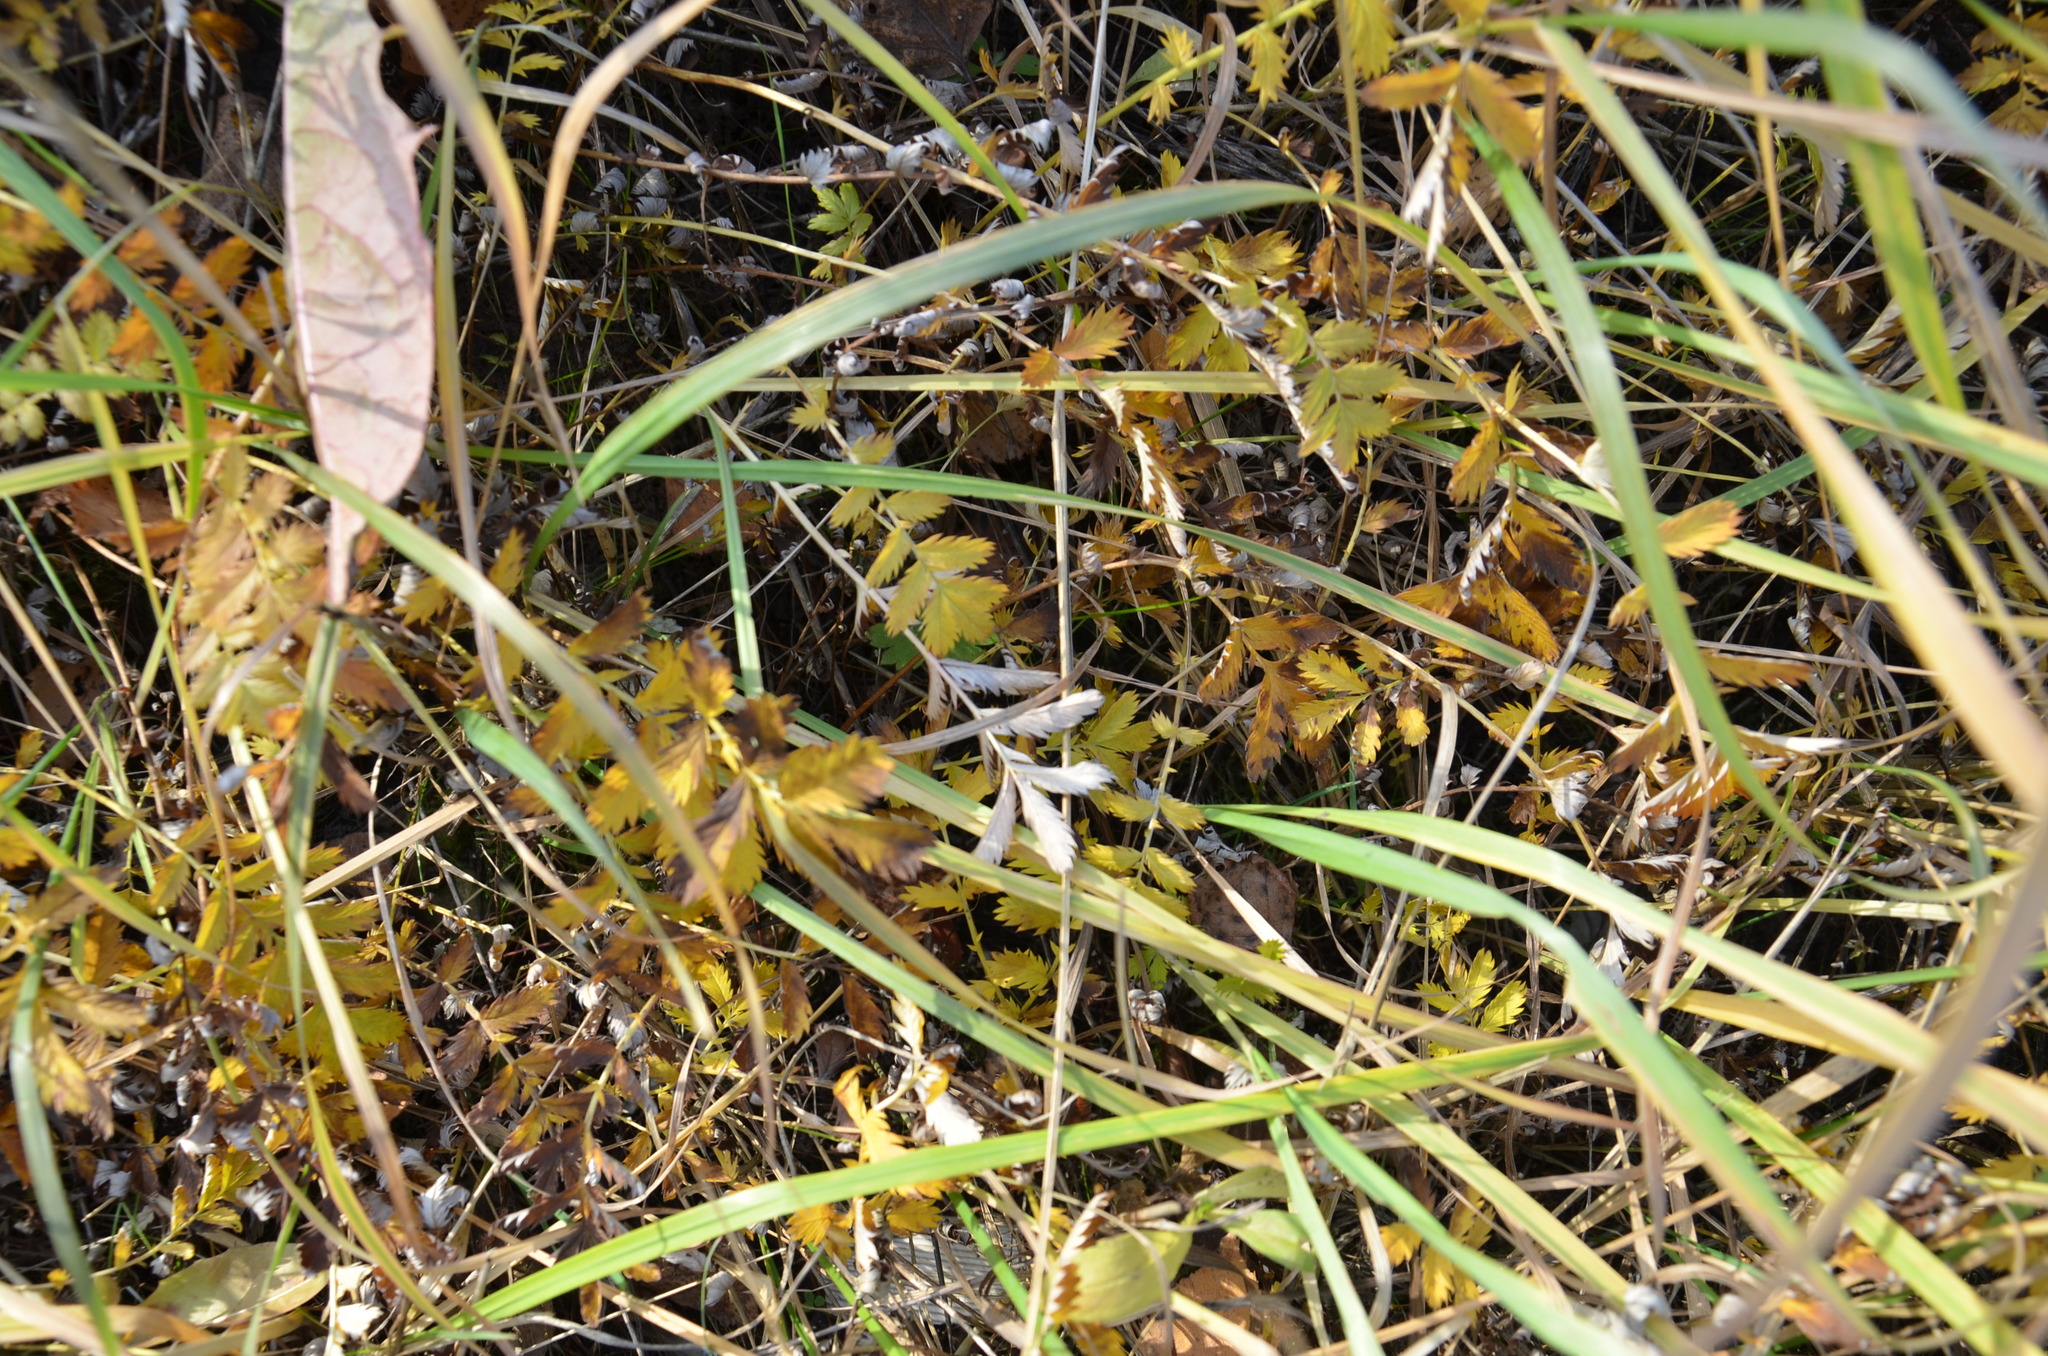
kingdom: Plantae
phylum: Tracheophyta
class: Magnoliopsida
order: Rosales
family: Rosaceae
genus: Argentina
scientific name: Argentina anserina
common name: Common silverweed
